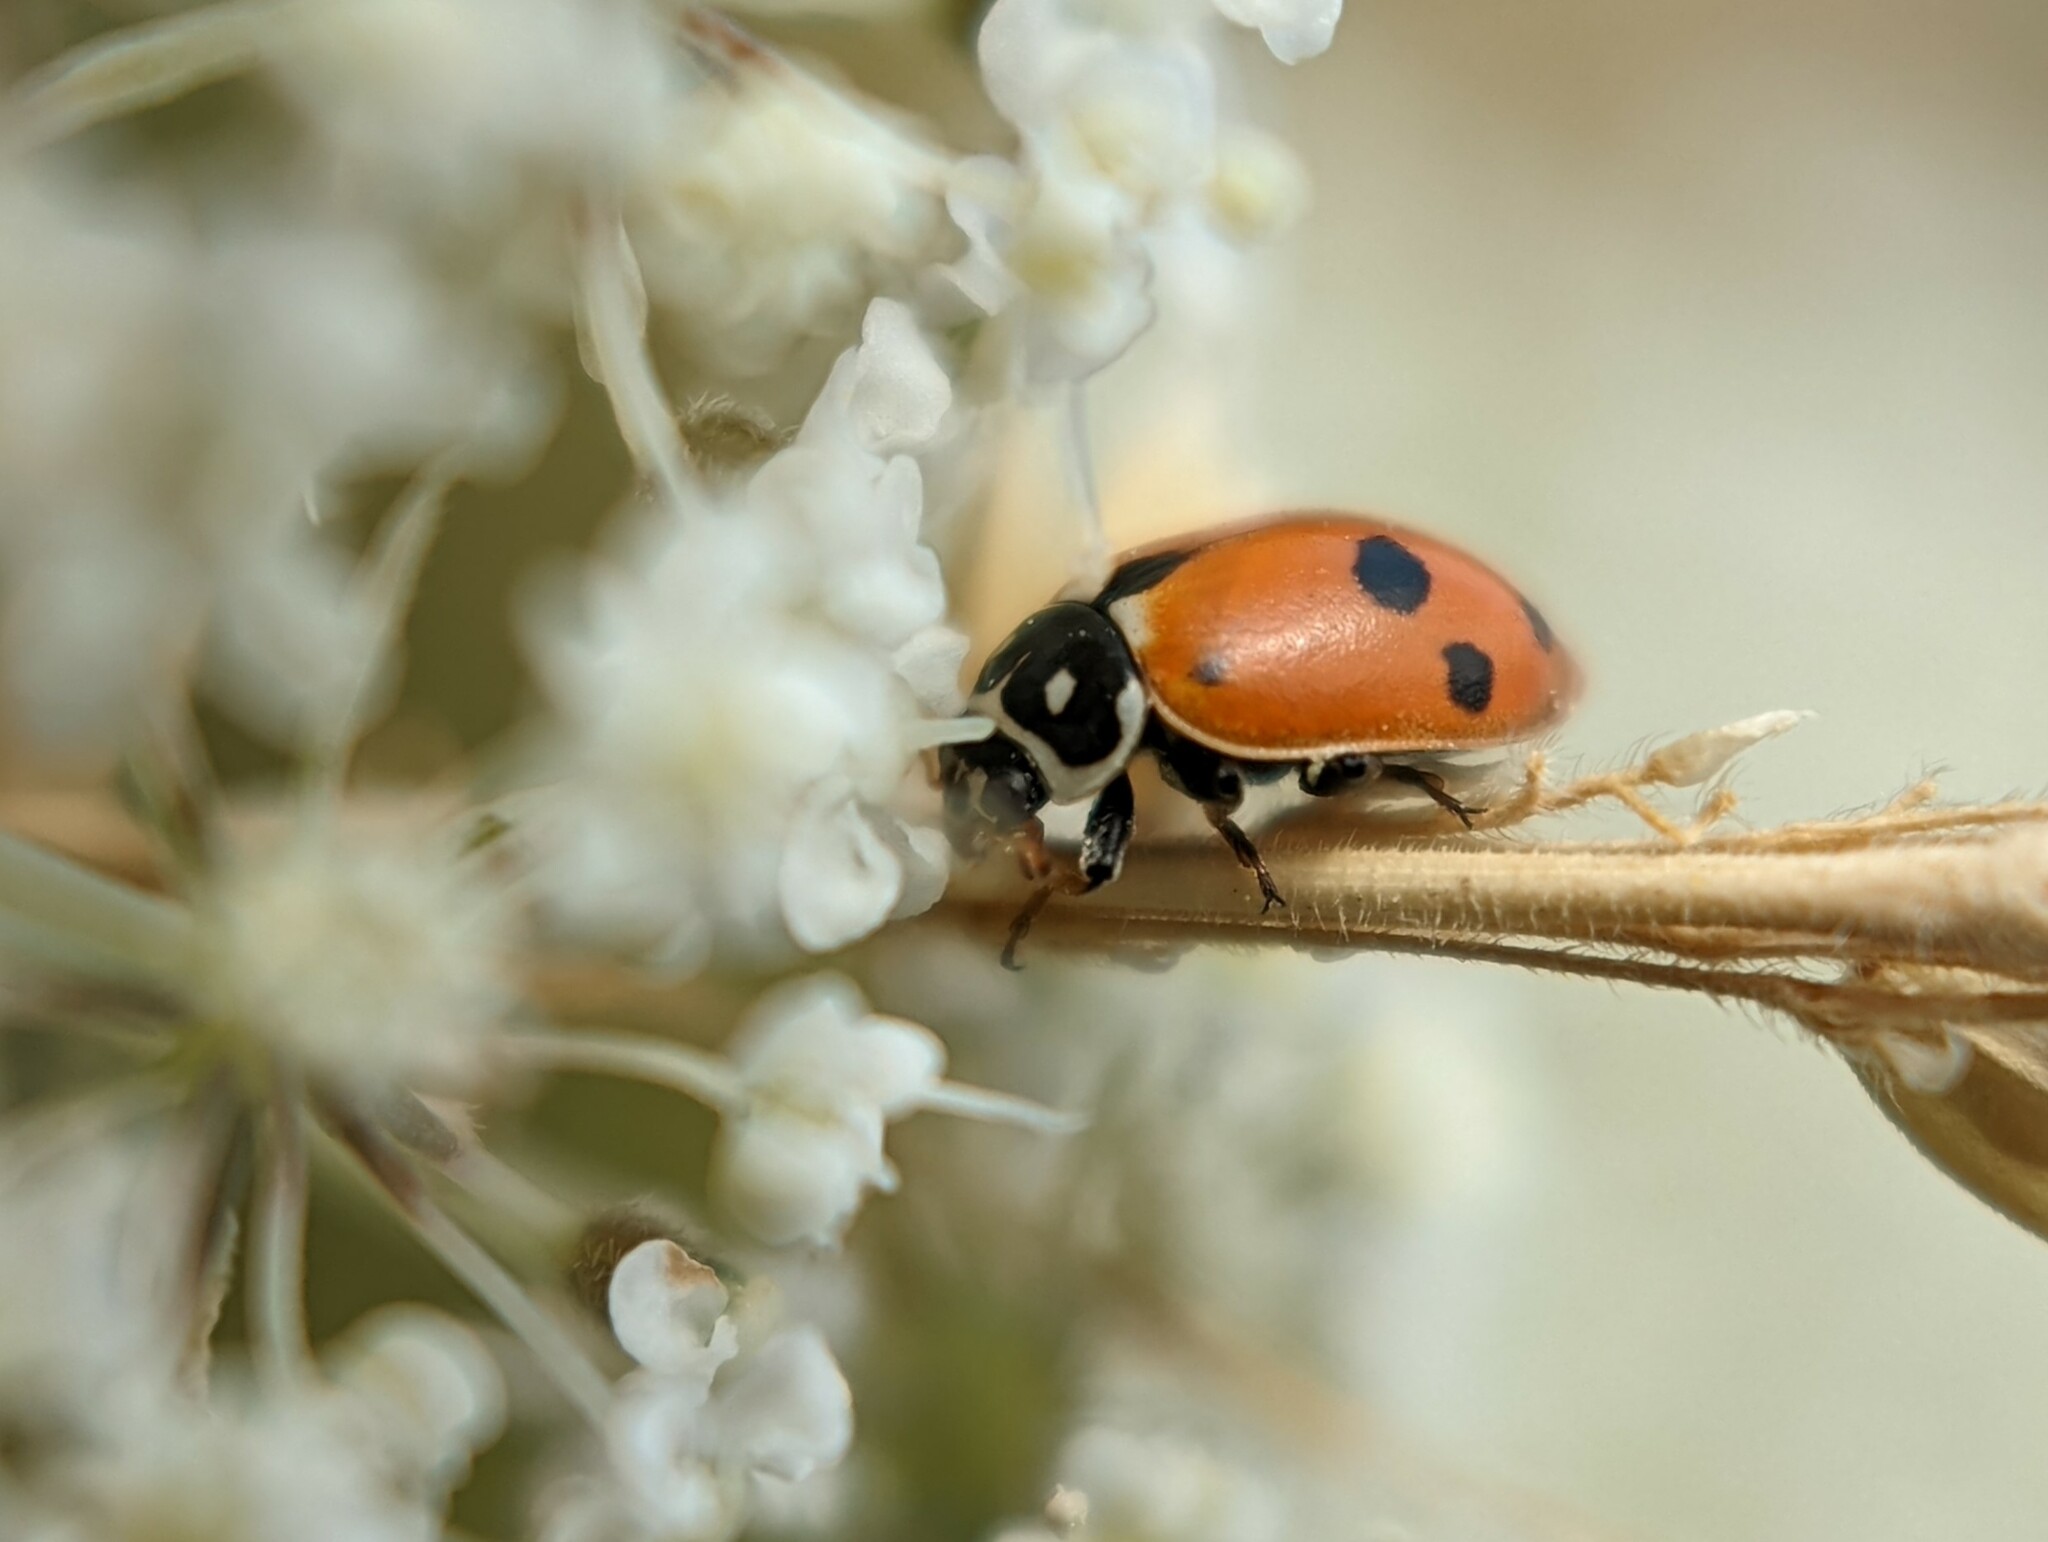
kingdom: Animalia
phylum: Arthropoda
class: Insecta
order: Coleoptera
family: Coccinellidae
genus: Hippodamia
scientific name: Hippodamia variegata
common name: Ladybird beetle
